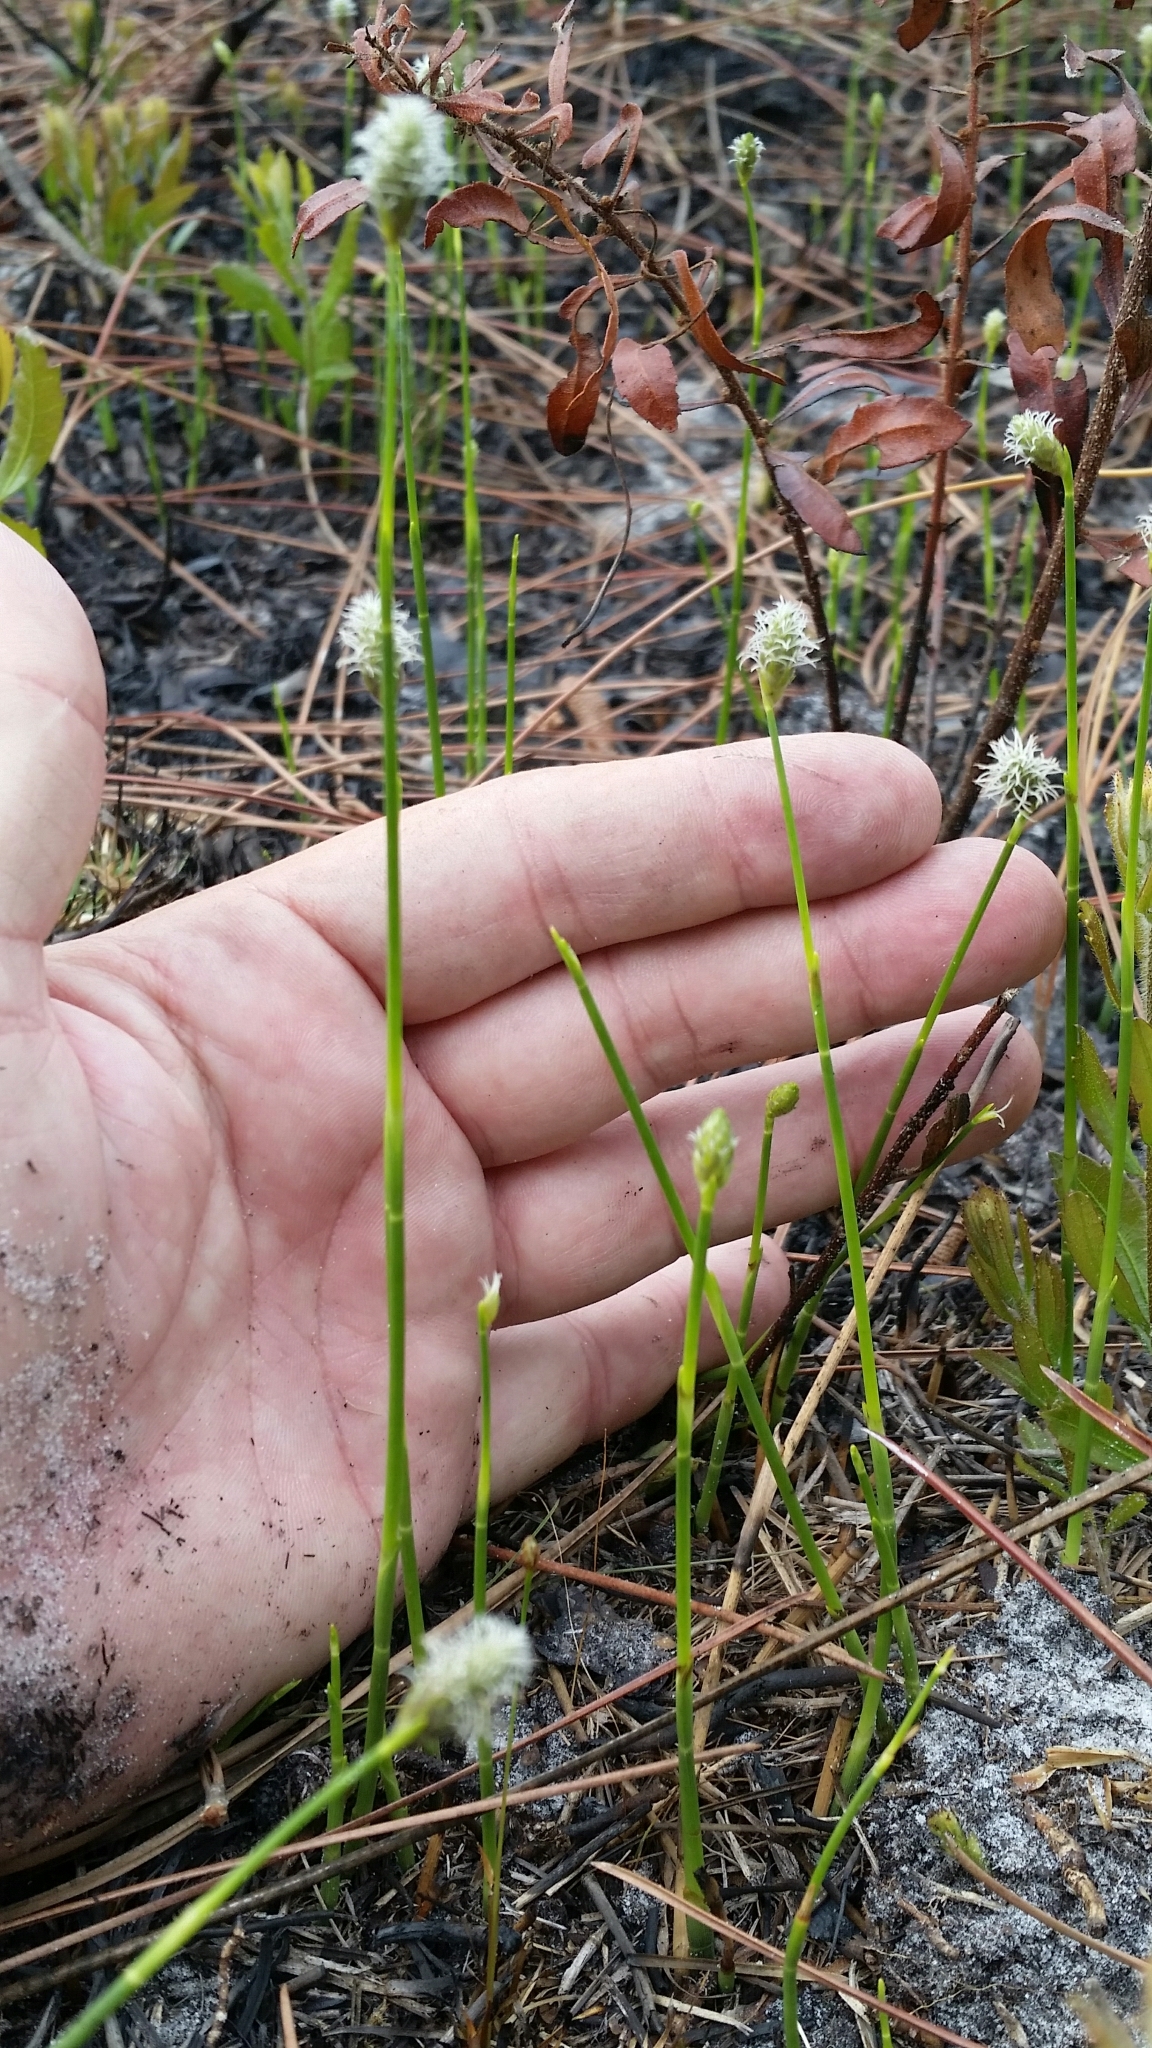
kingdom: Plantae
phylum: Tracheophyta
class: Liliopsida
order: Poales
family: Cyperaceae
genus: Fuirena
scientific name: Fuirena scirpoidea
